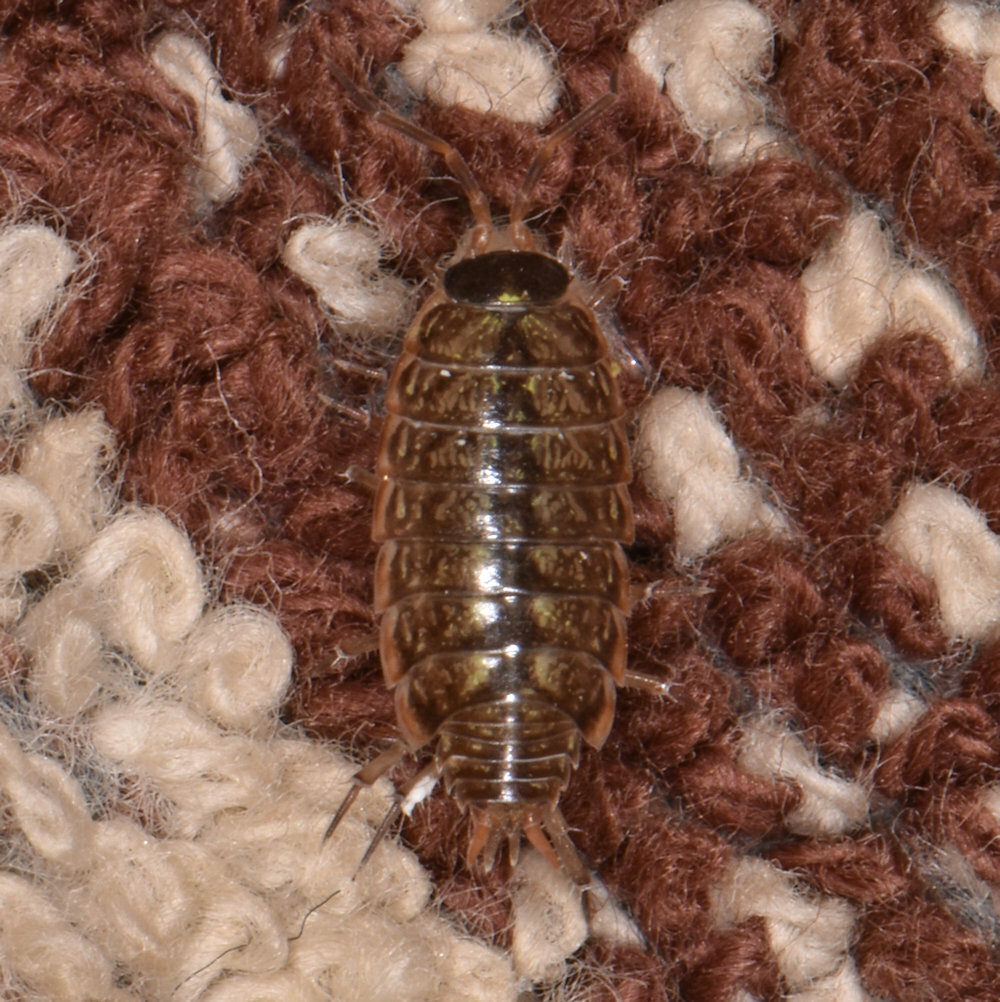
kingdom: Animalia
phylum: Arthropoda
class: Malacostraca
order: Isopoda
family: Philosciidae
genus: Philoscia
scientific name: Philoscia muscorum
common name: Common striped woodlouse
